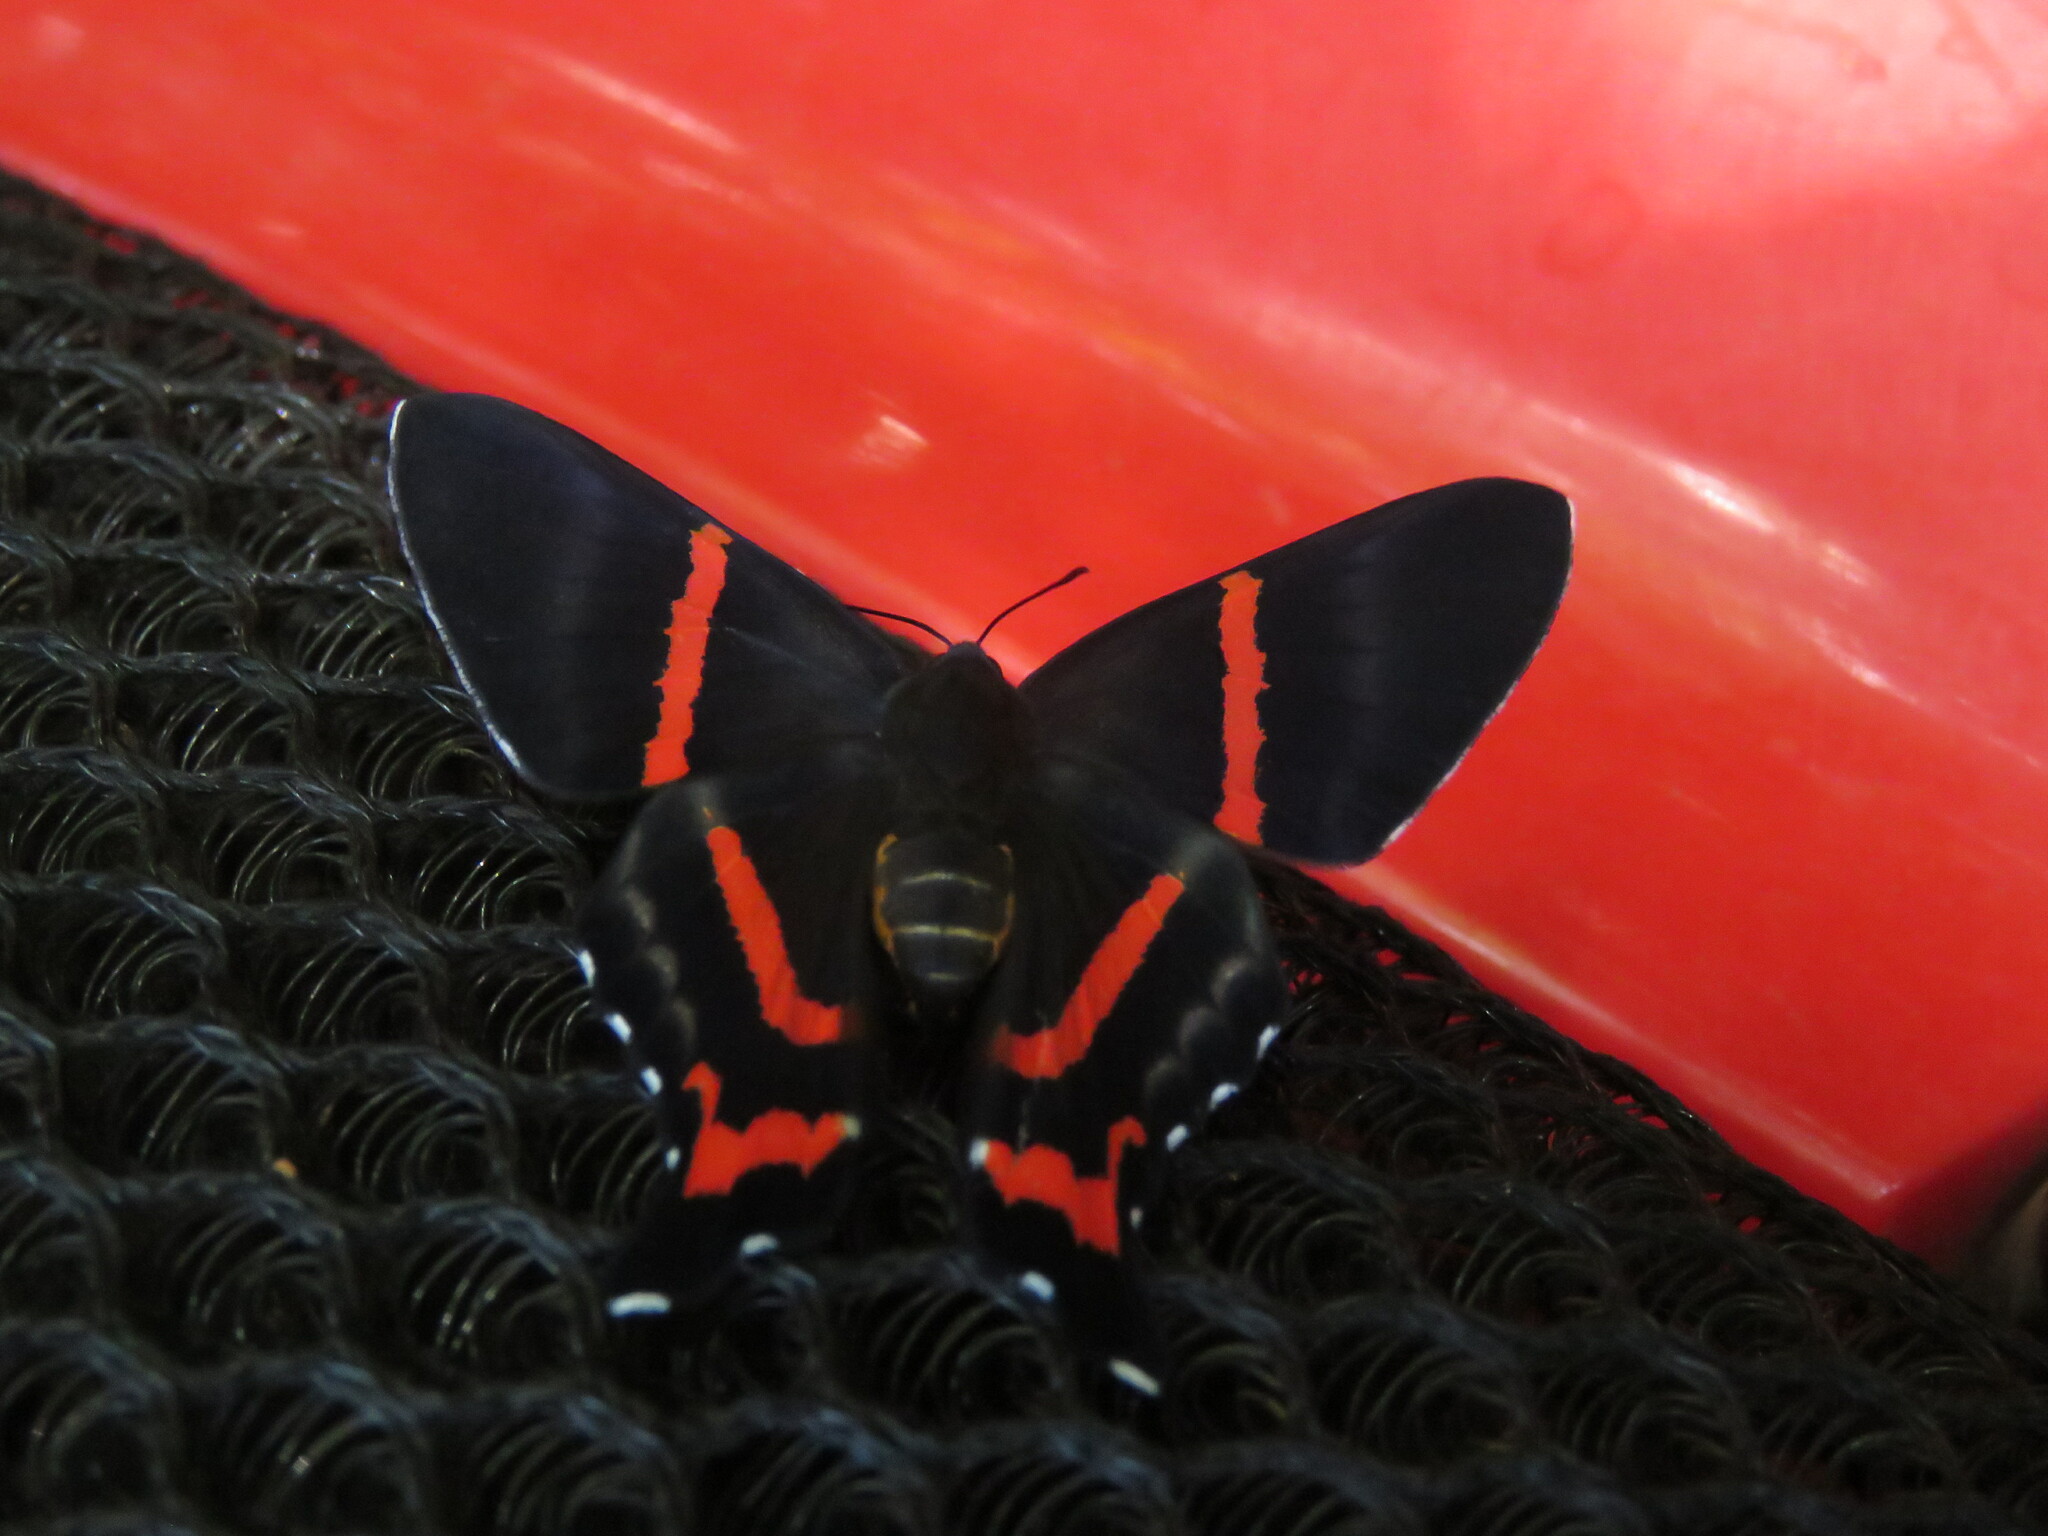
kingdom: Animalia
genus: Ancyluris
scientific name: Ancyluris aulestes
